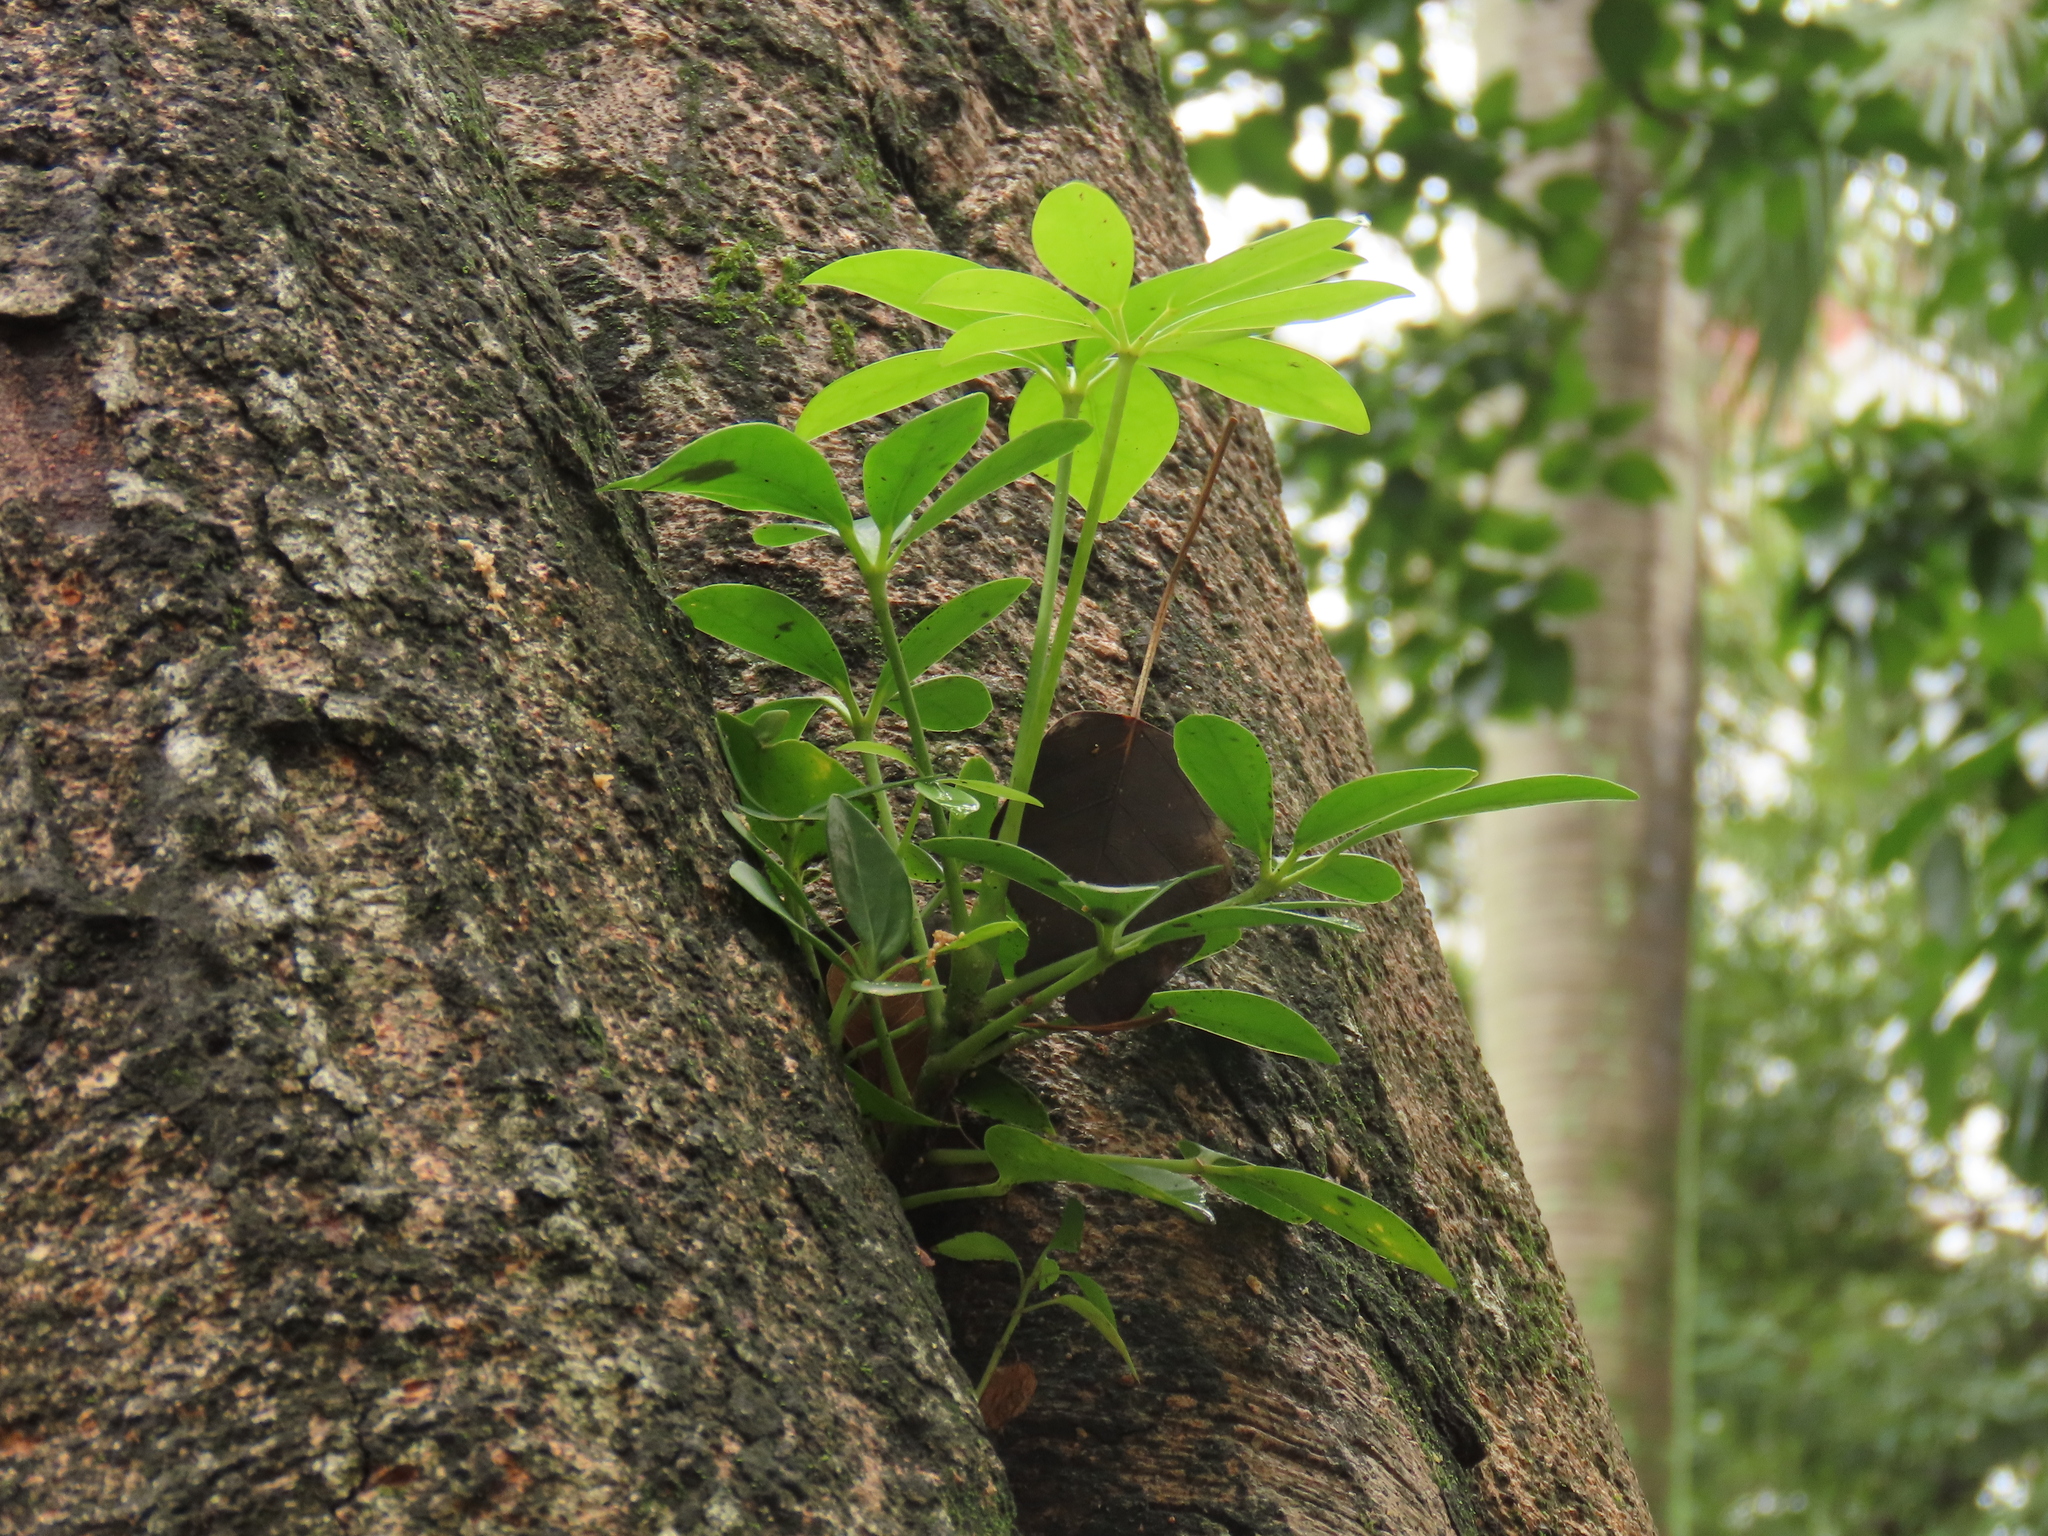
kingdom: Plantae
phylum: Tracheophyta
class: Magnoliopsida
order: Apiales
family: Araliaceae
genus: Heptapleurum
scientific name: Heptapleurum arboricola
